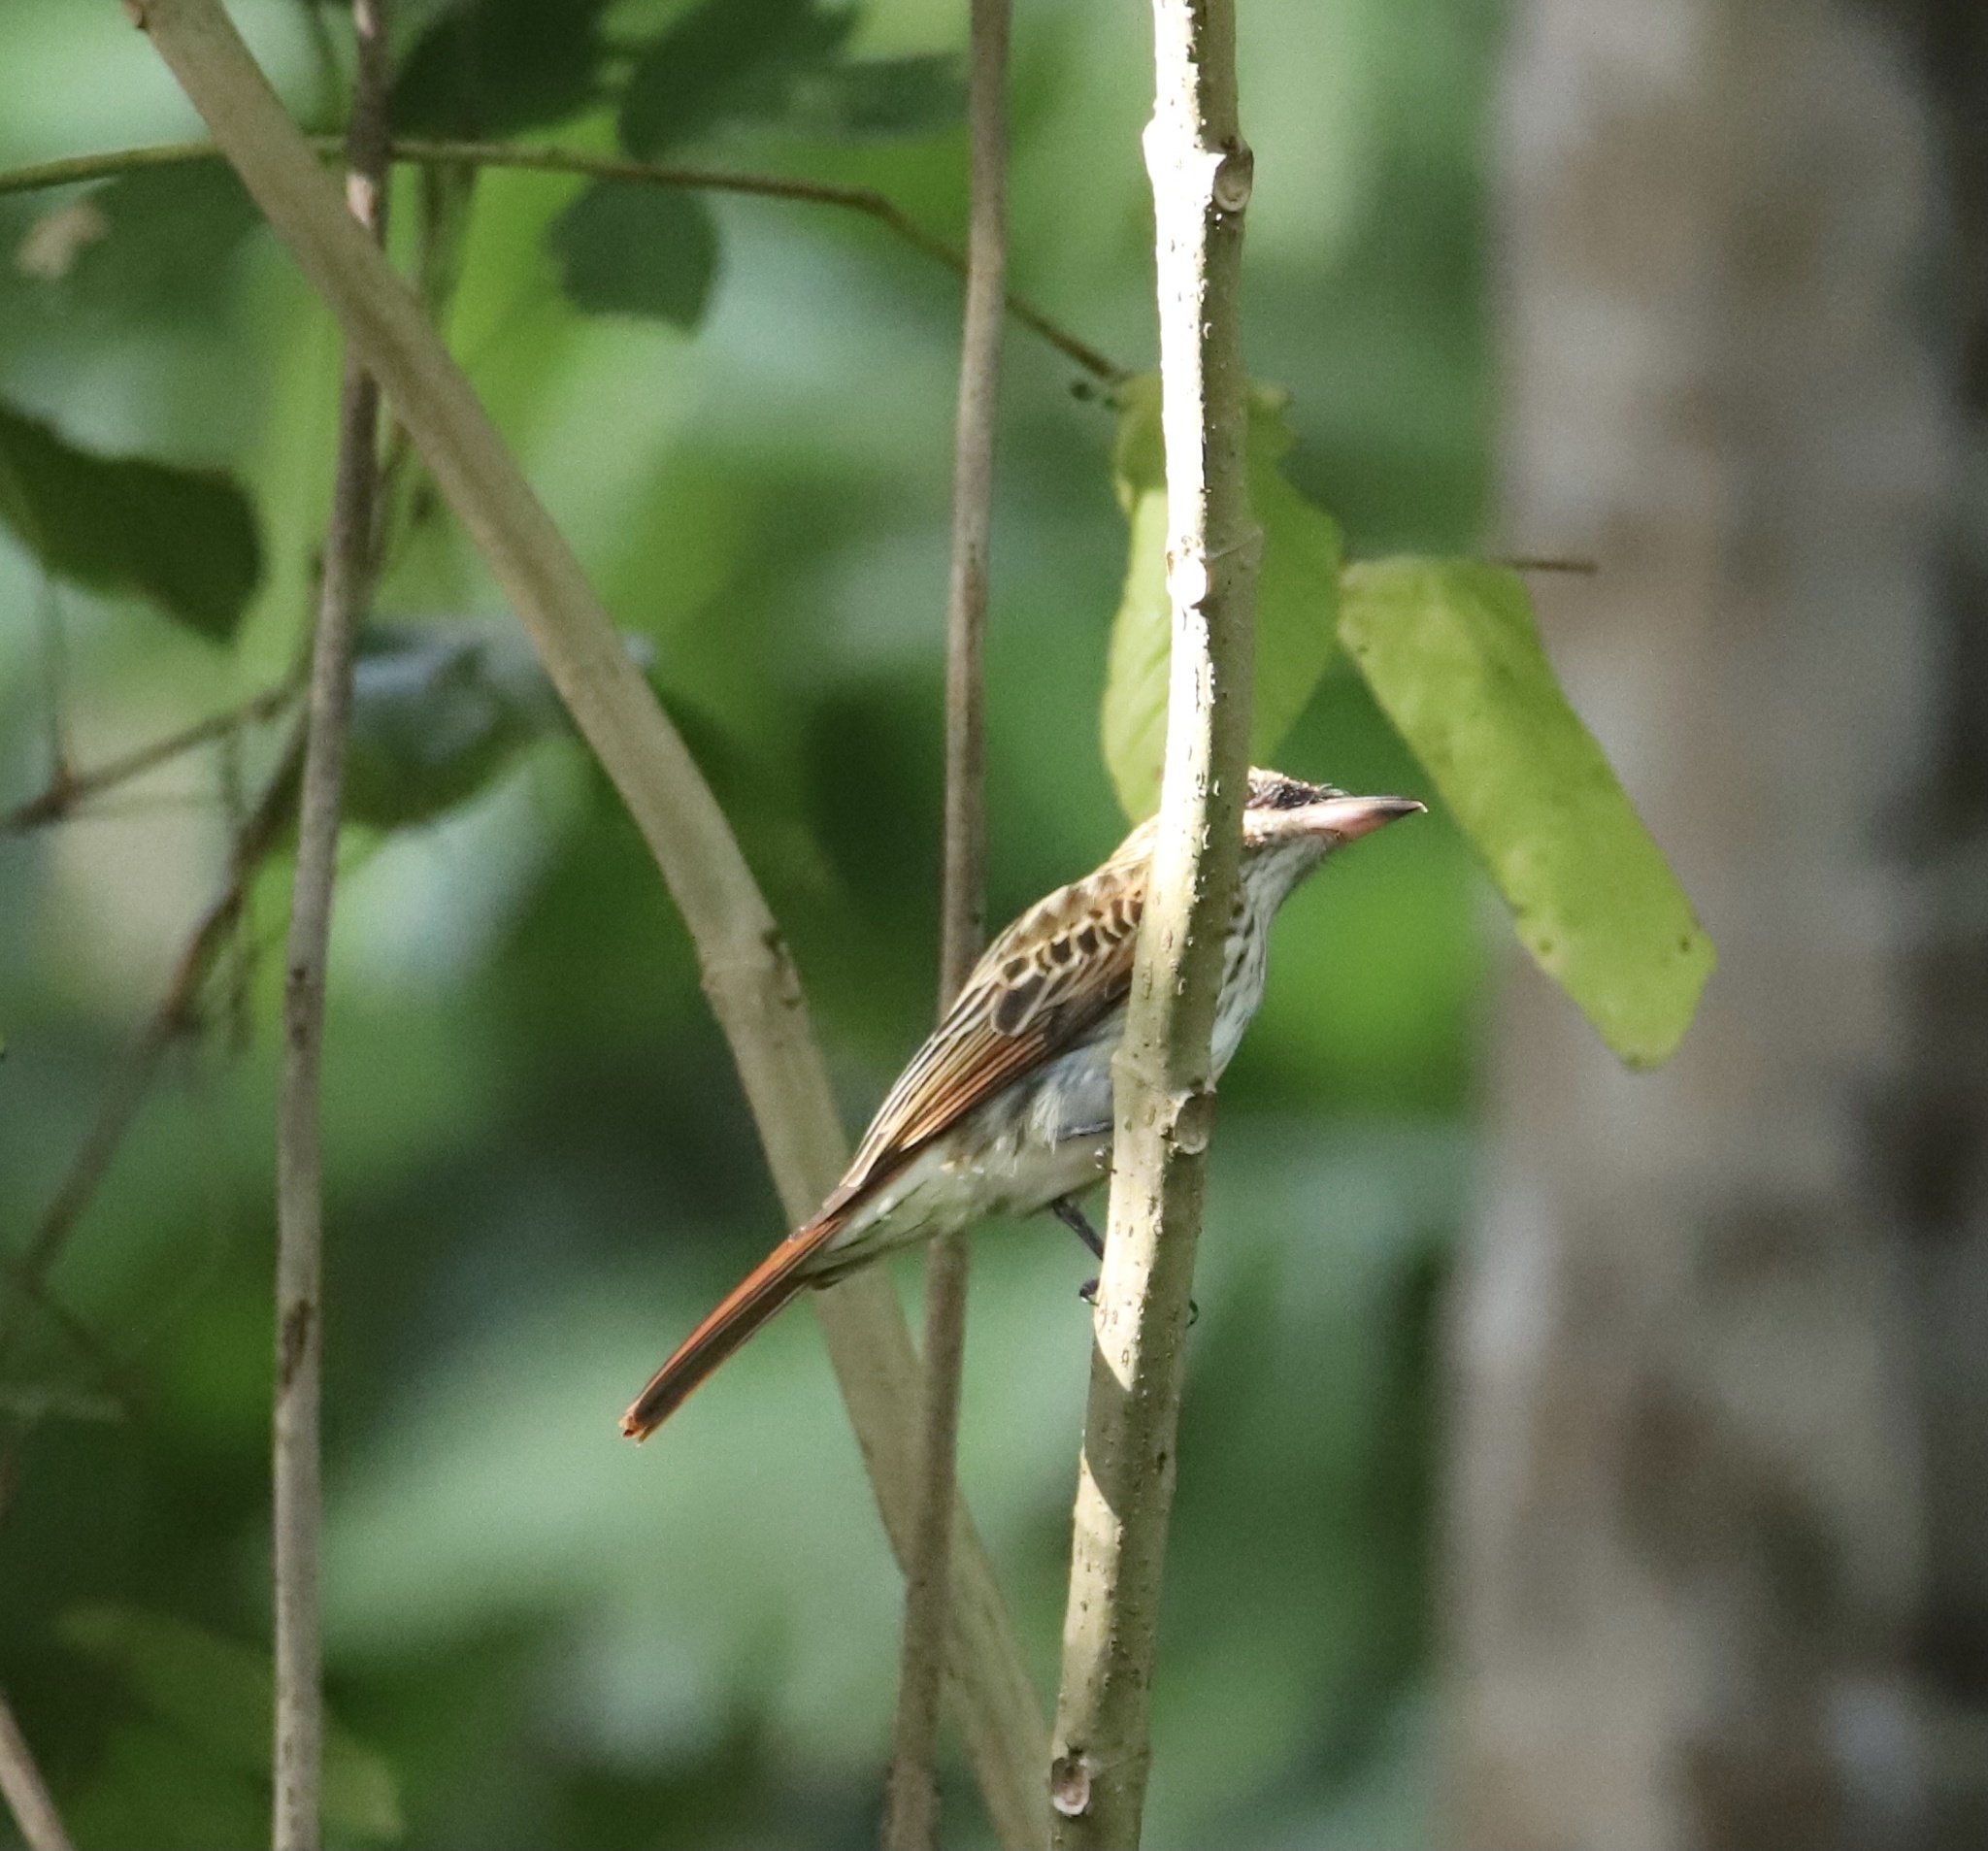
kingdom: Animalia
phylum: Chordata
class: Aves
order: Passeriformes
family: Tyrannidae
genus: Myiodynastes
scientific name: Myiodynastes maculatus
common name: Streaked flycatcher
